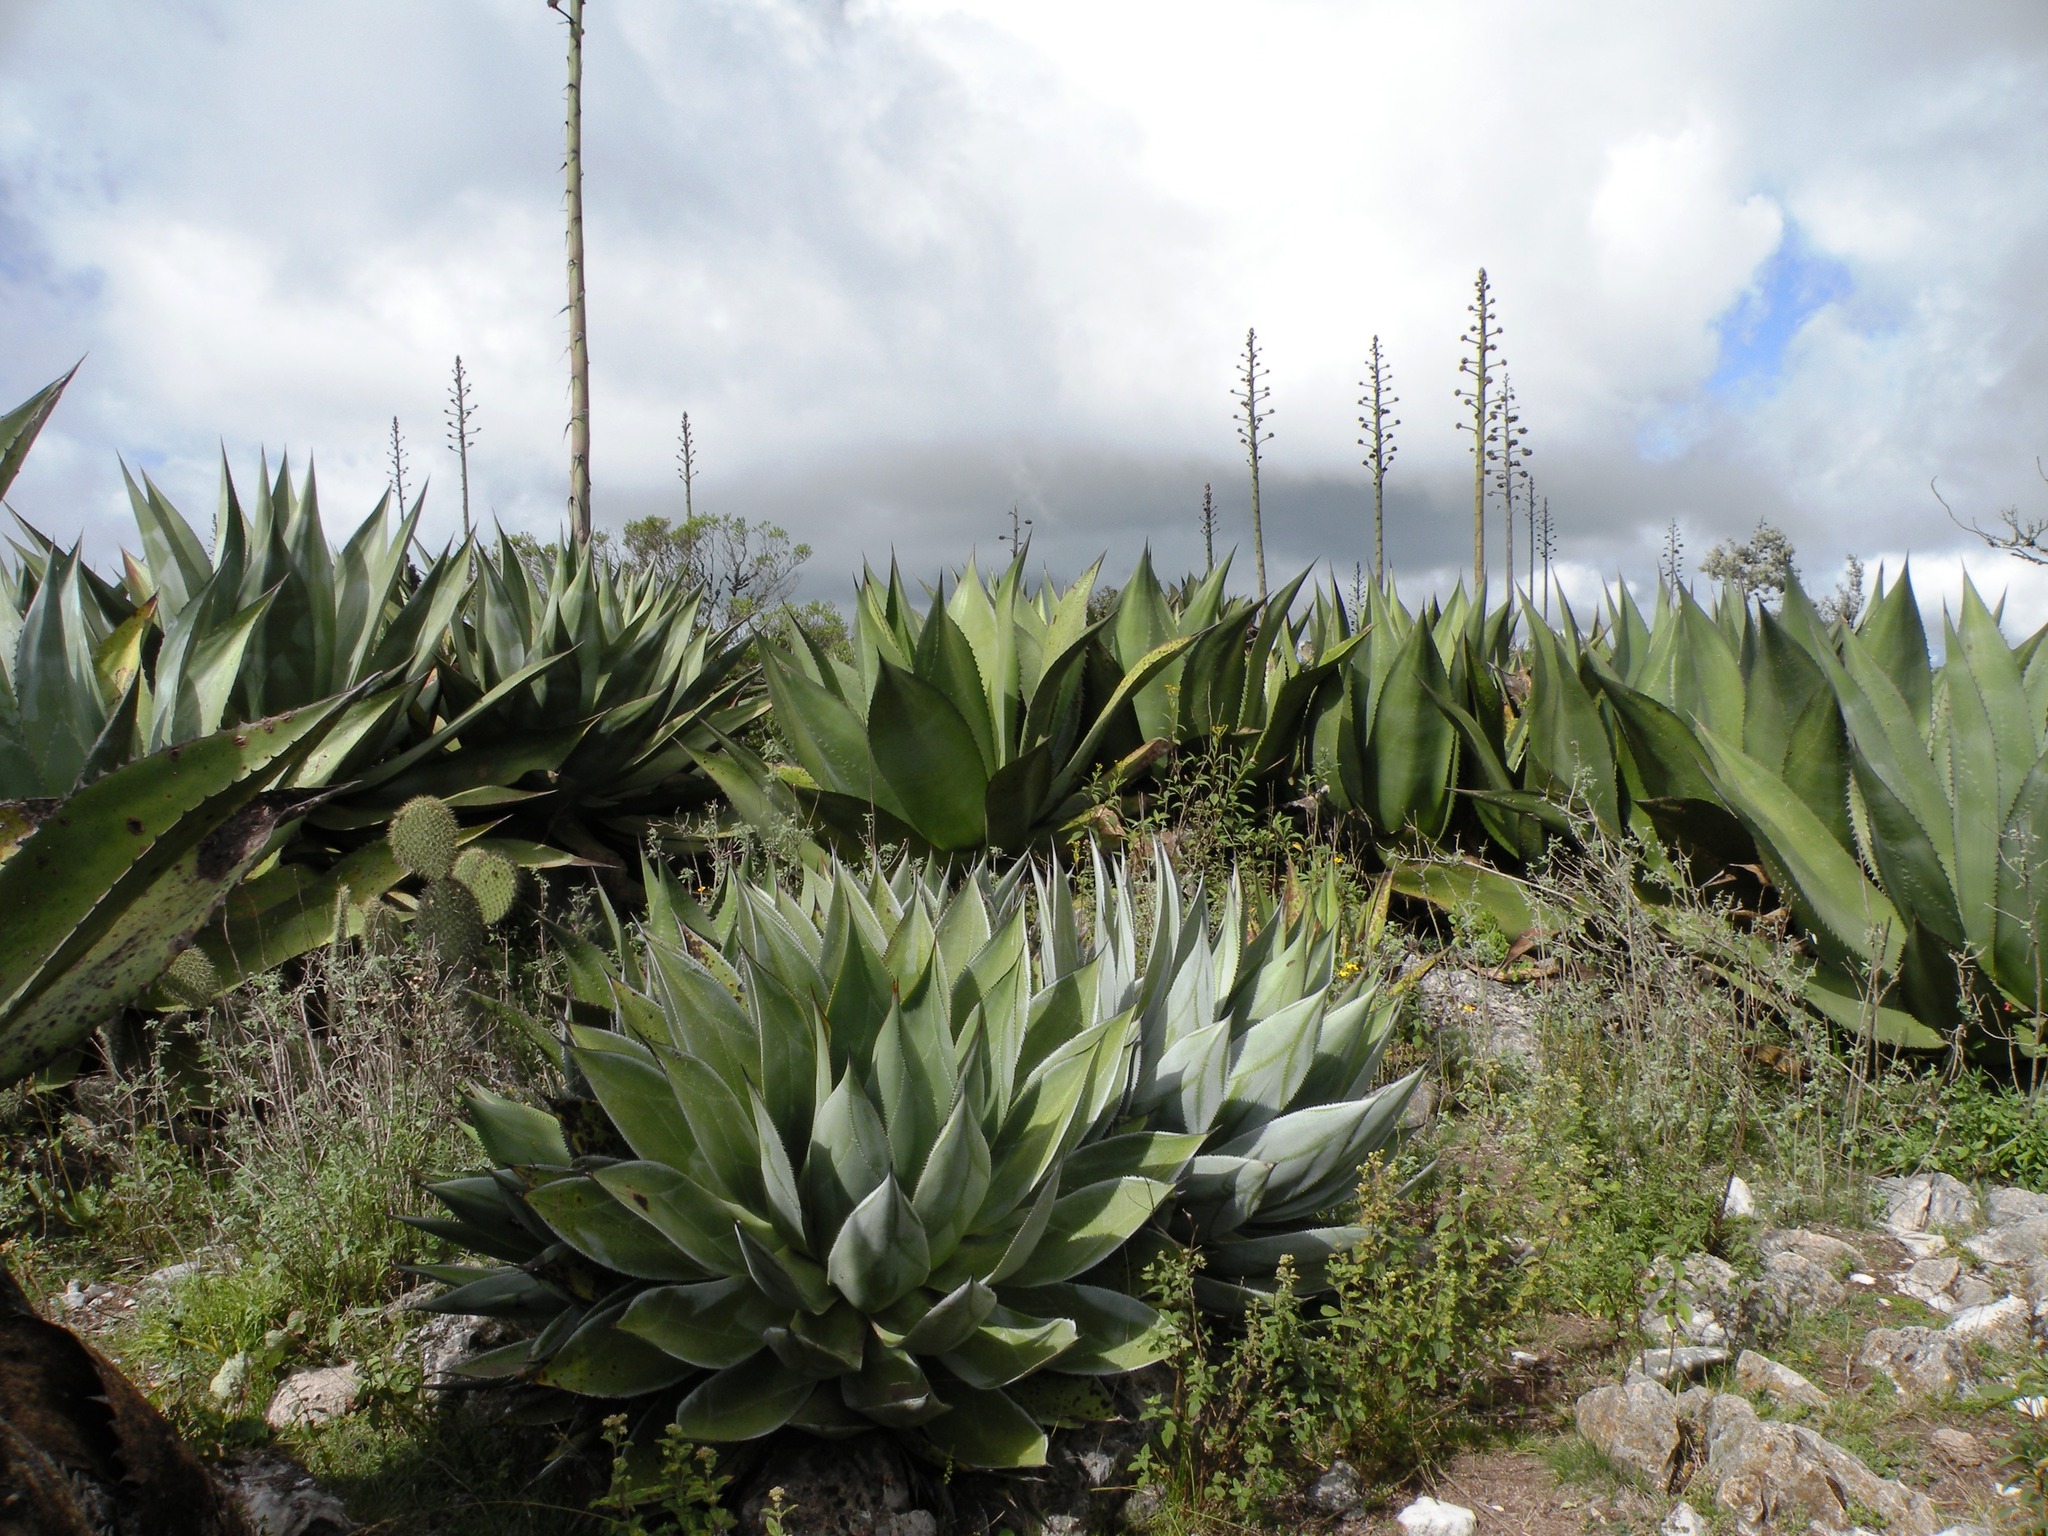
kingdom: Plantae
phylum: Tracheophyta
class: Liliopsida
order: Asparagales
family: Asparagaceae
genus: Agave
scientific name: Agave
